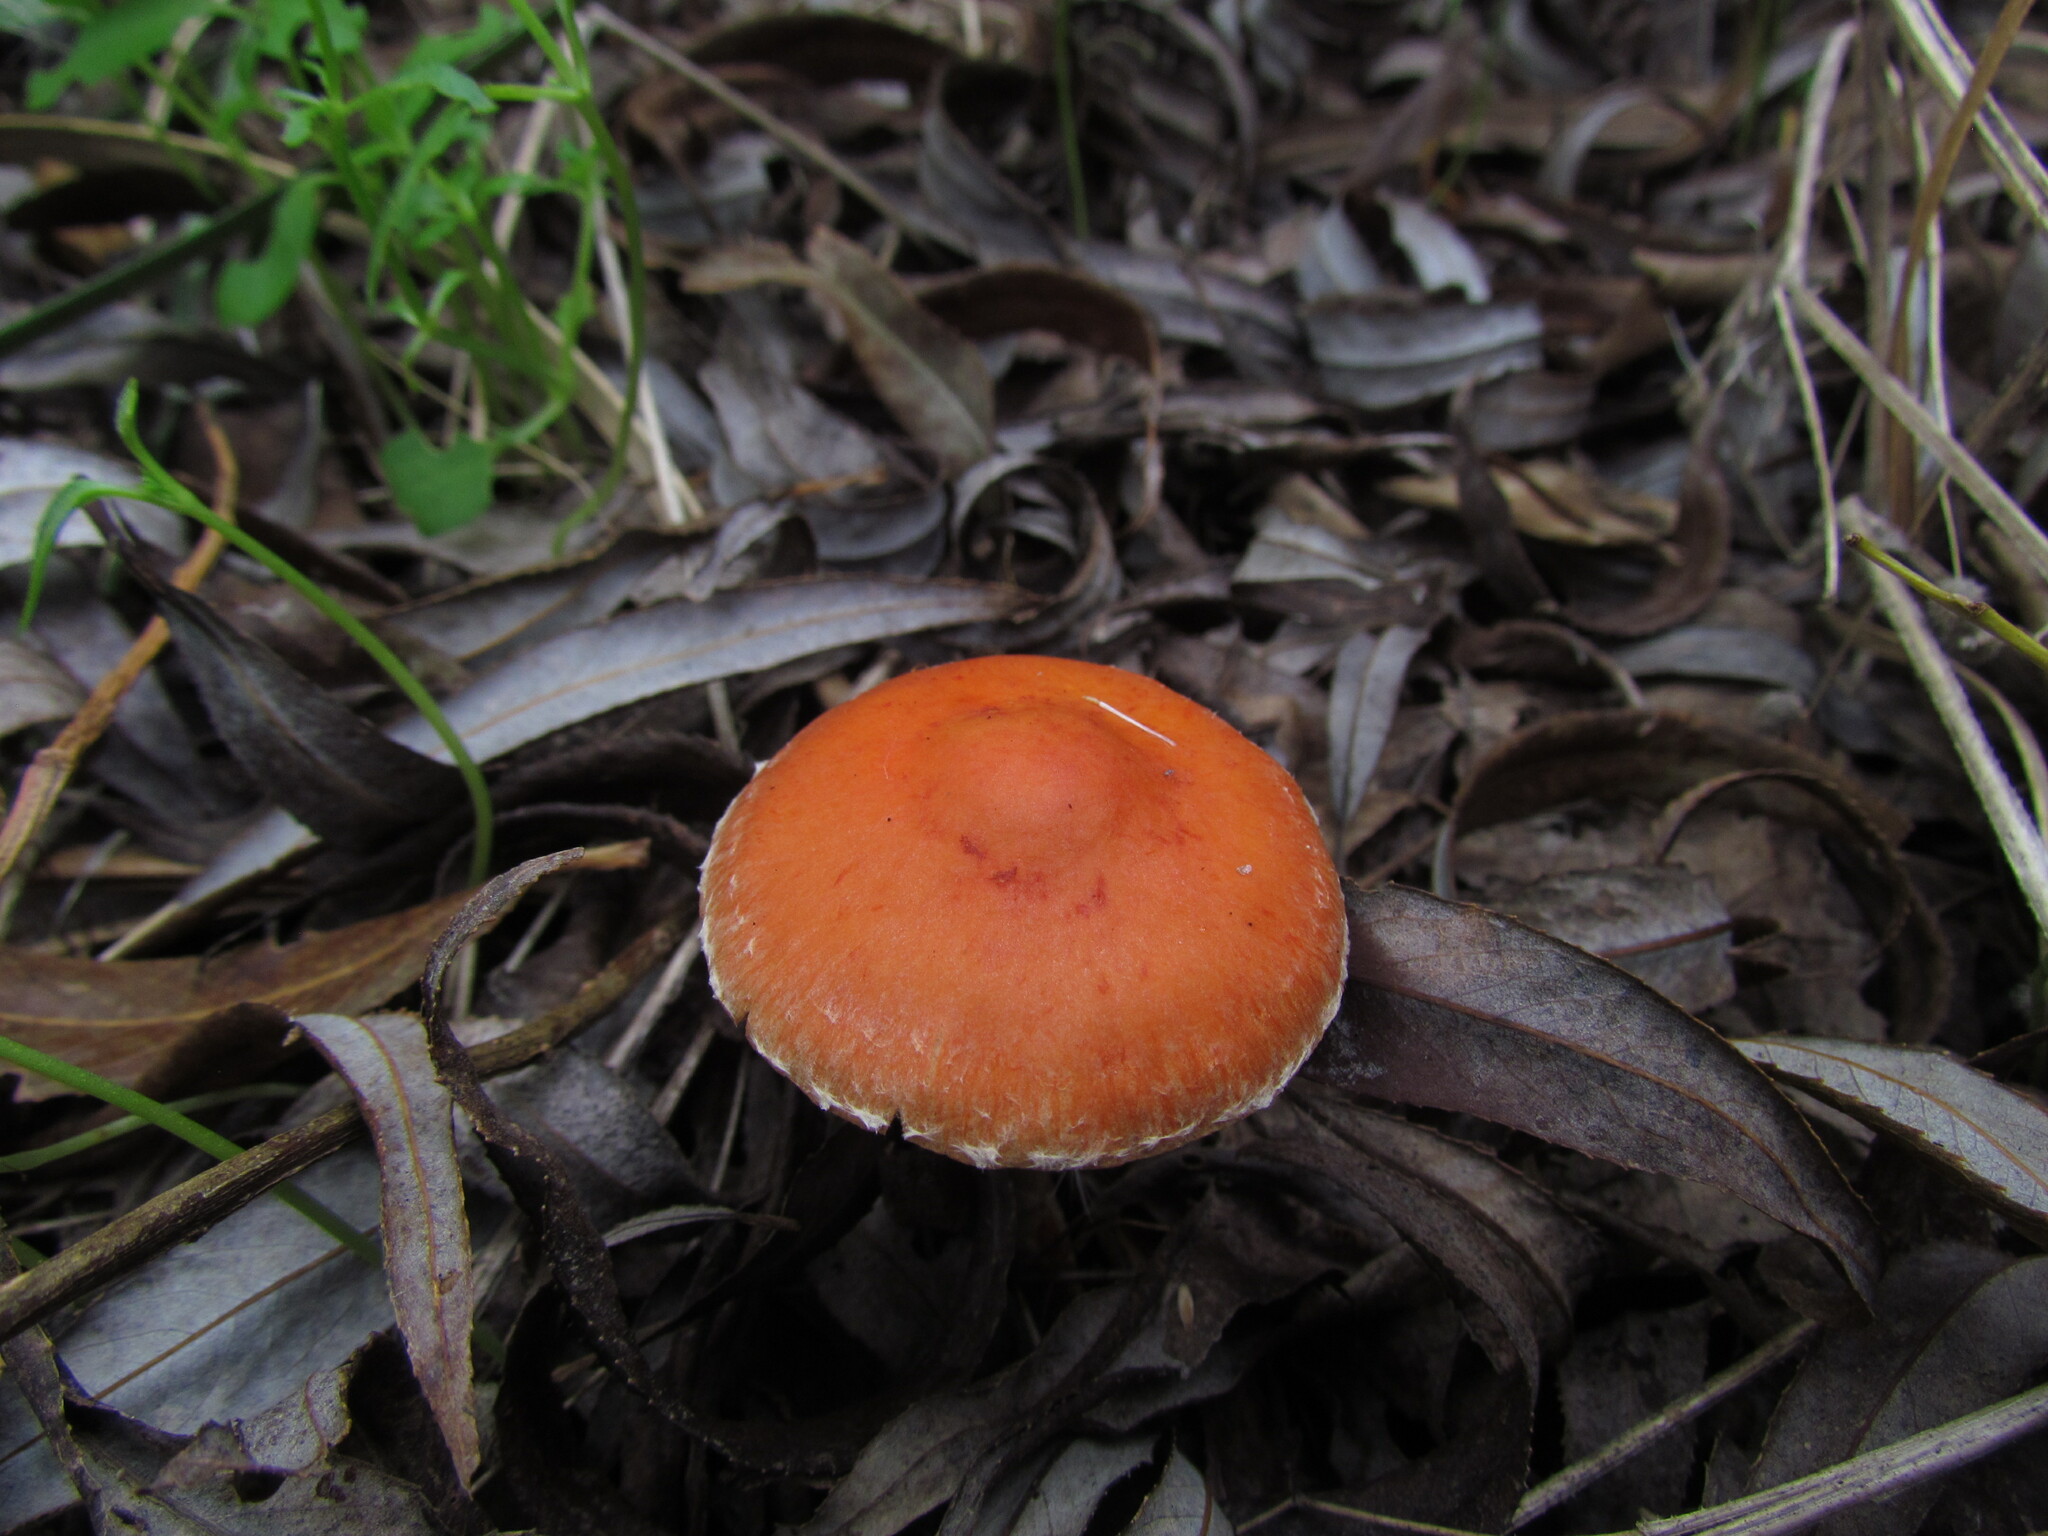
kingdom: Fungi
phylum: Basidiomycota
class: Agaricomycetes
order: Agaricales
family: Strophariaceae
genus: Leratiomyces
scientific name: Leratiomyces ceres
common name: Redlead roundhead
